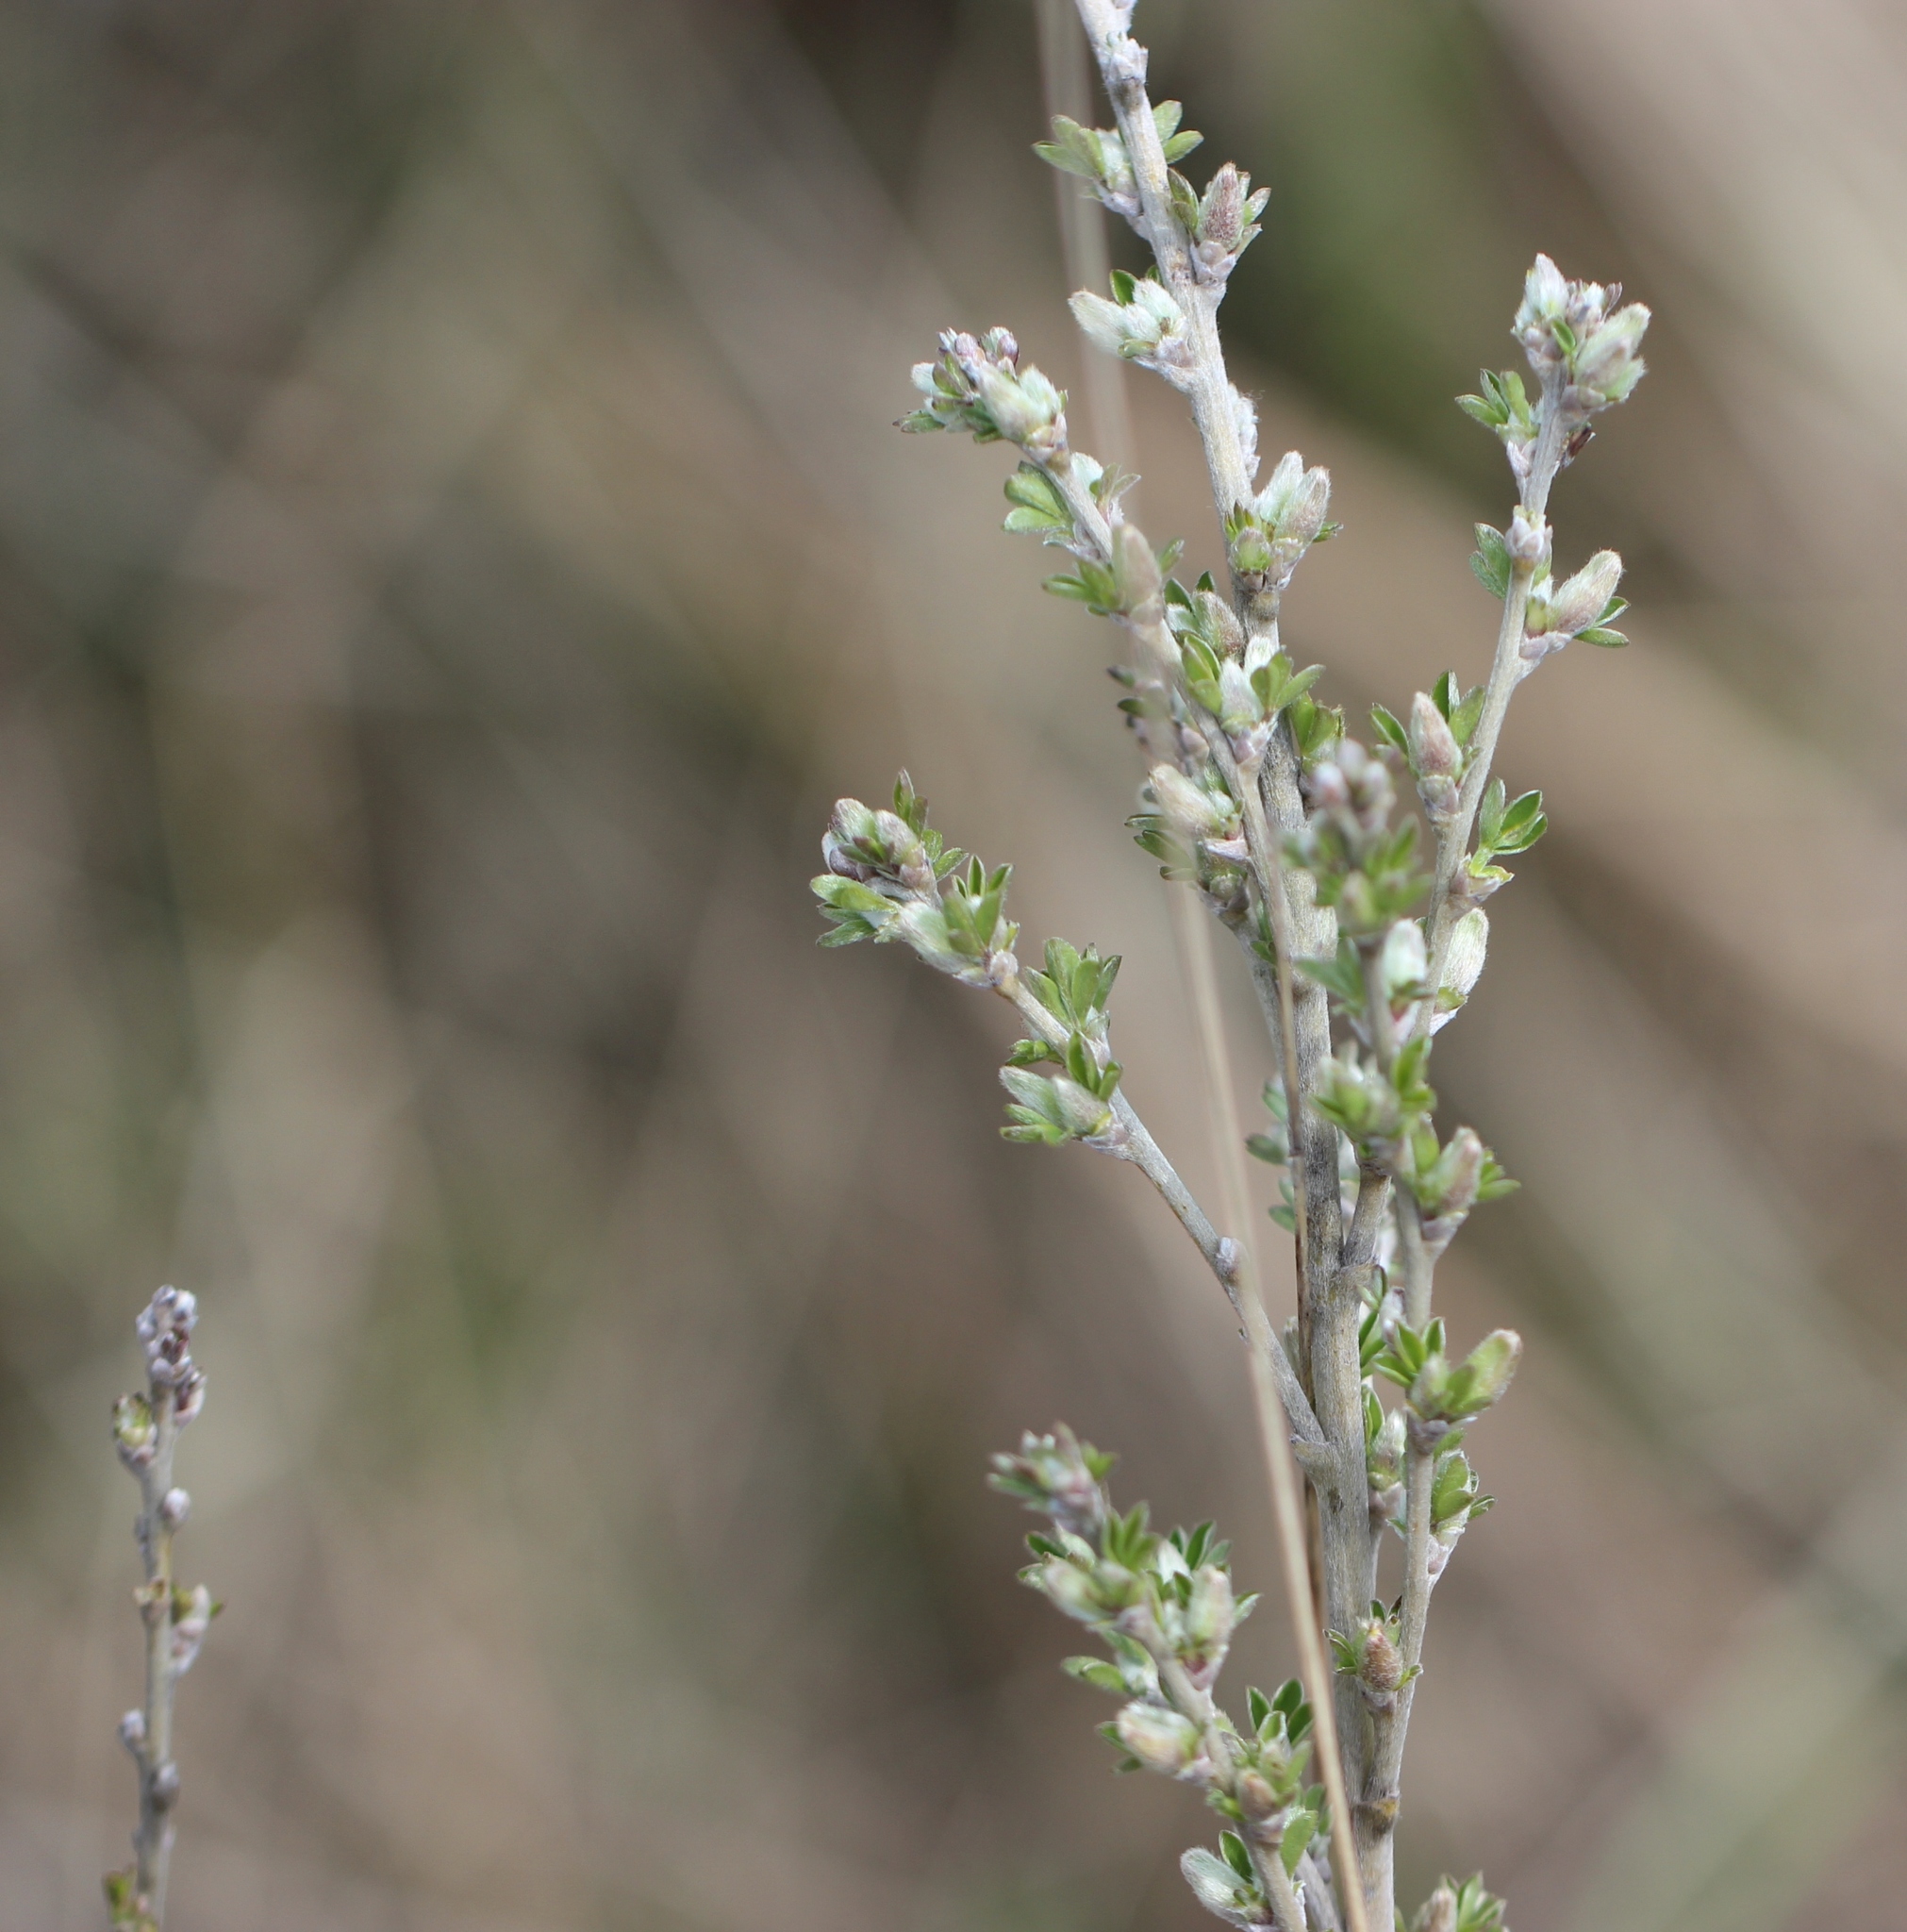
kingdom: Plantae
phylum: Tracheophyta
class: Magnoliopsida
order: Fabales
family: Fabaceae
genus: Chamaecytisus
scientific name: Chamaecytisus ruthenicus
